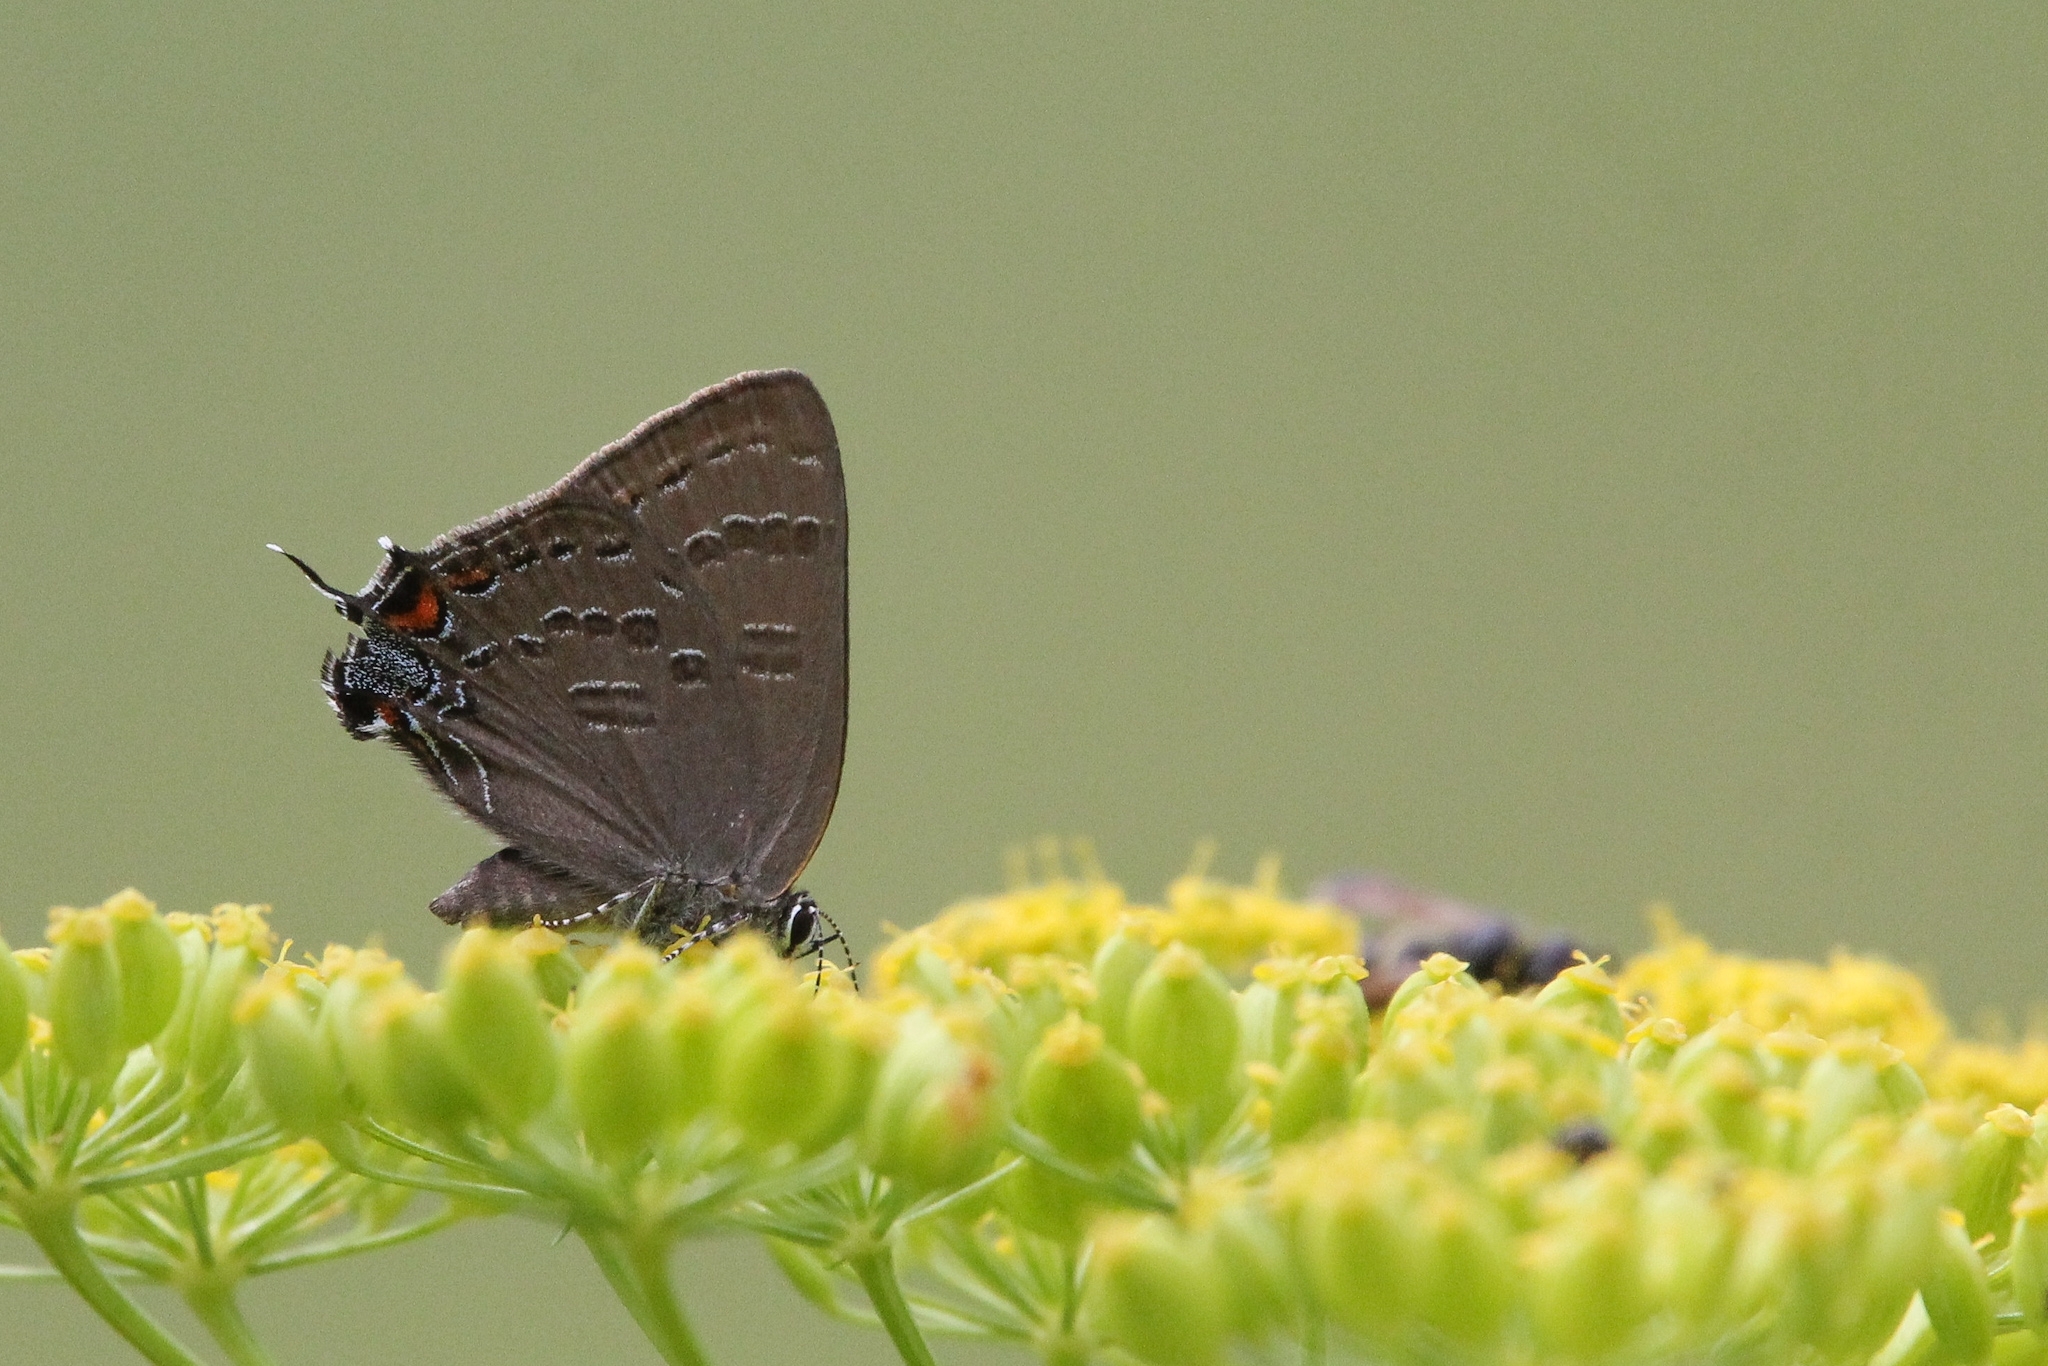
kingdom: Animalia
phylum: Arthropoda
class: Insecta
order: Lepidoptera
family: Lycaenidae
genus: Satyrium
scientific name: Satyrium calanus
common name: Banded hairstreak
